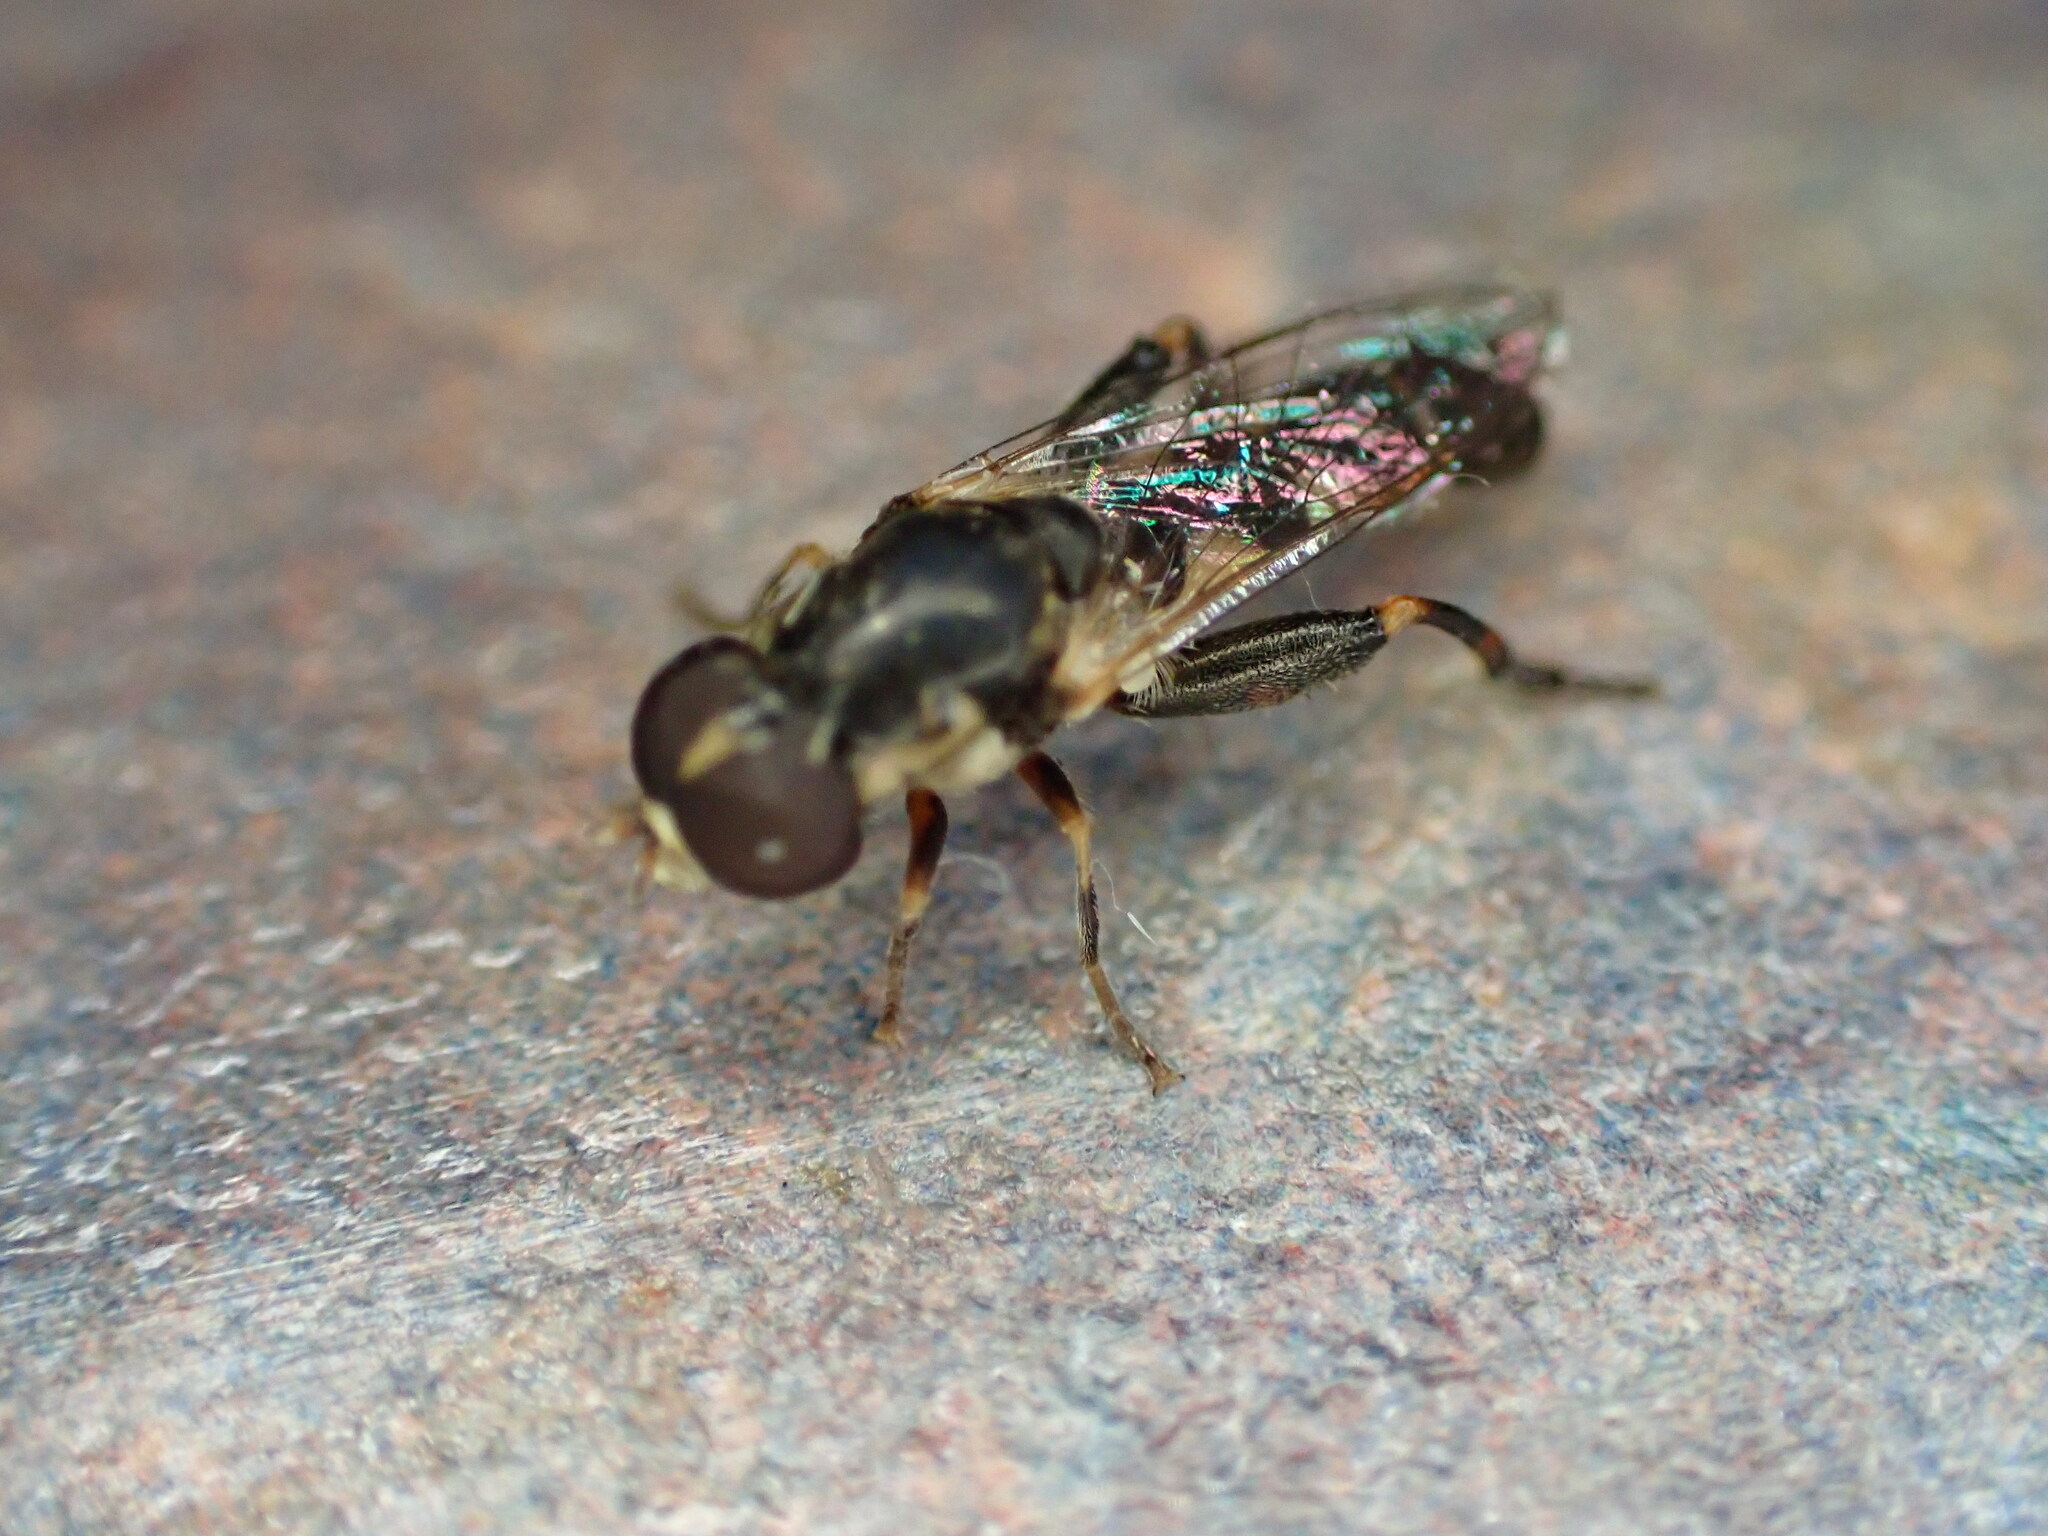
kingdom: Animalia
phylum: Arthropoda
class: Insecta
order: Diptera
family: Syrphidae
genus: Syritta
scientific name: Syritta pipiens
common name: Hover fly
